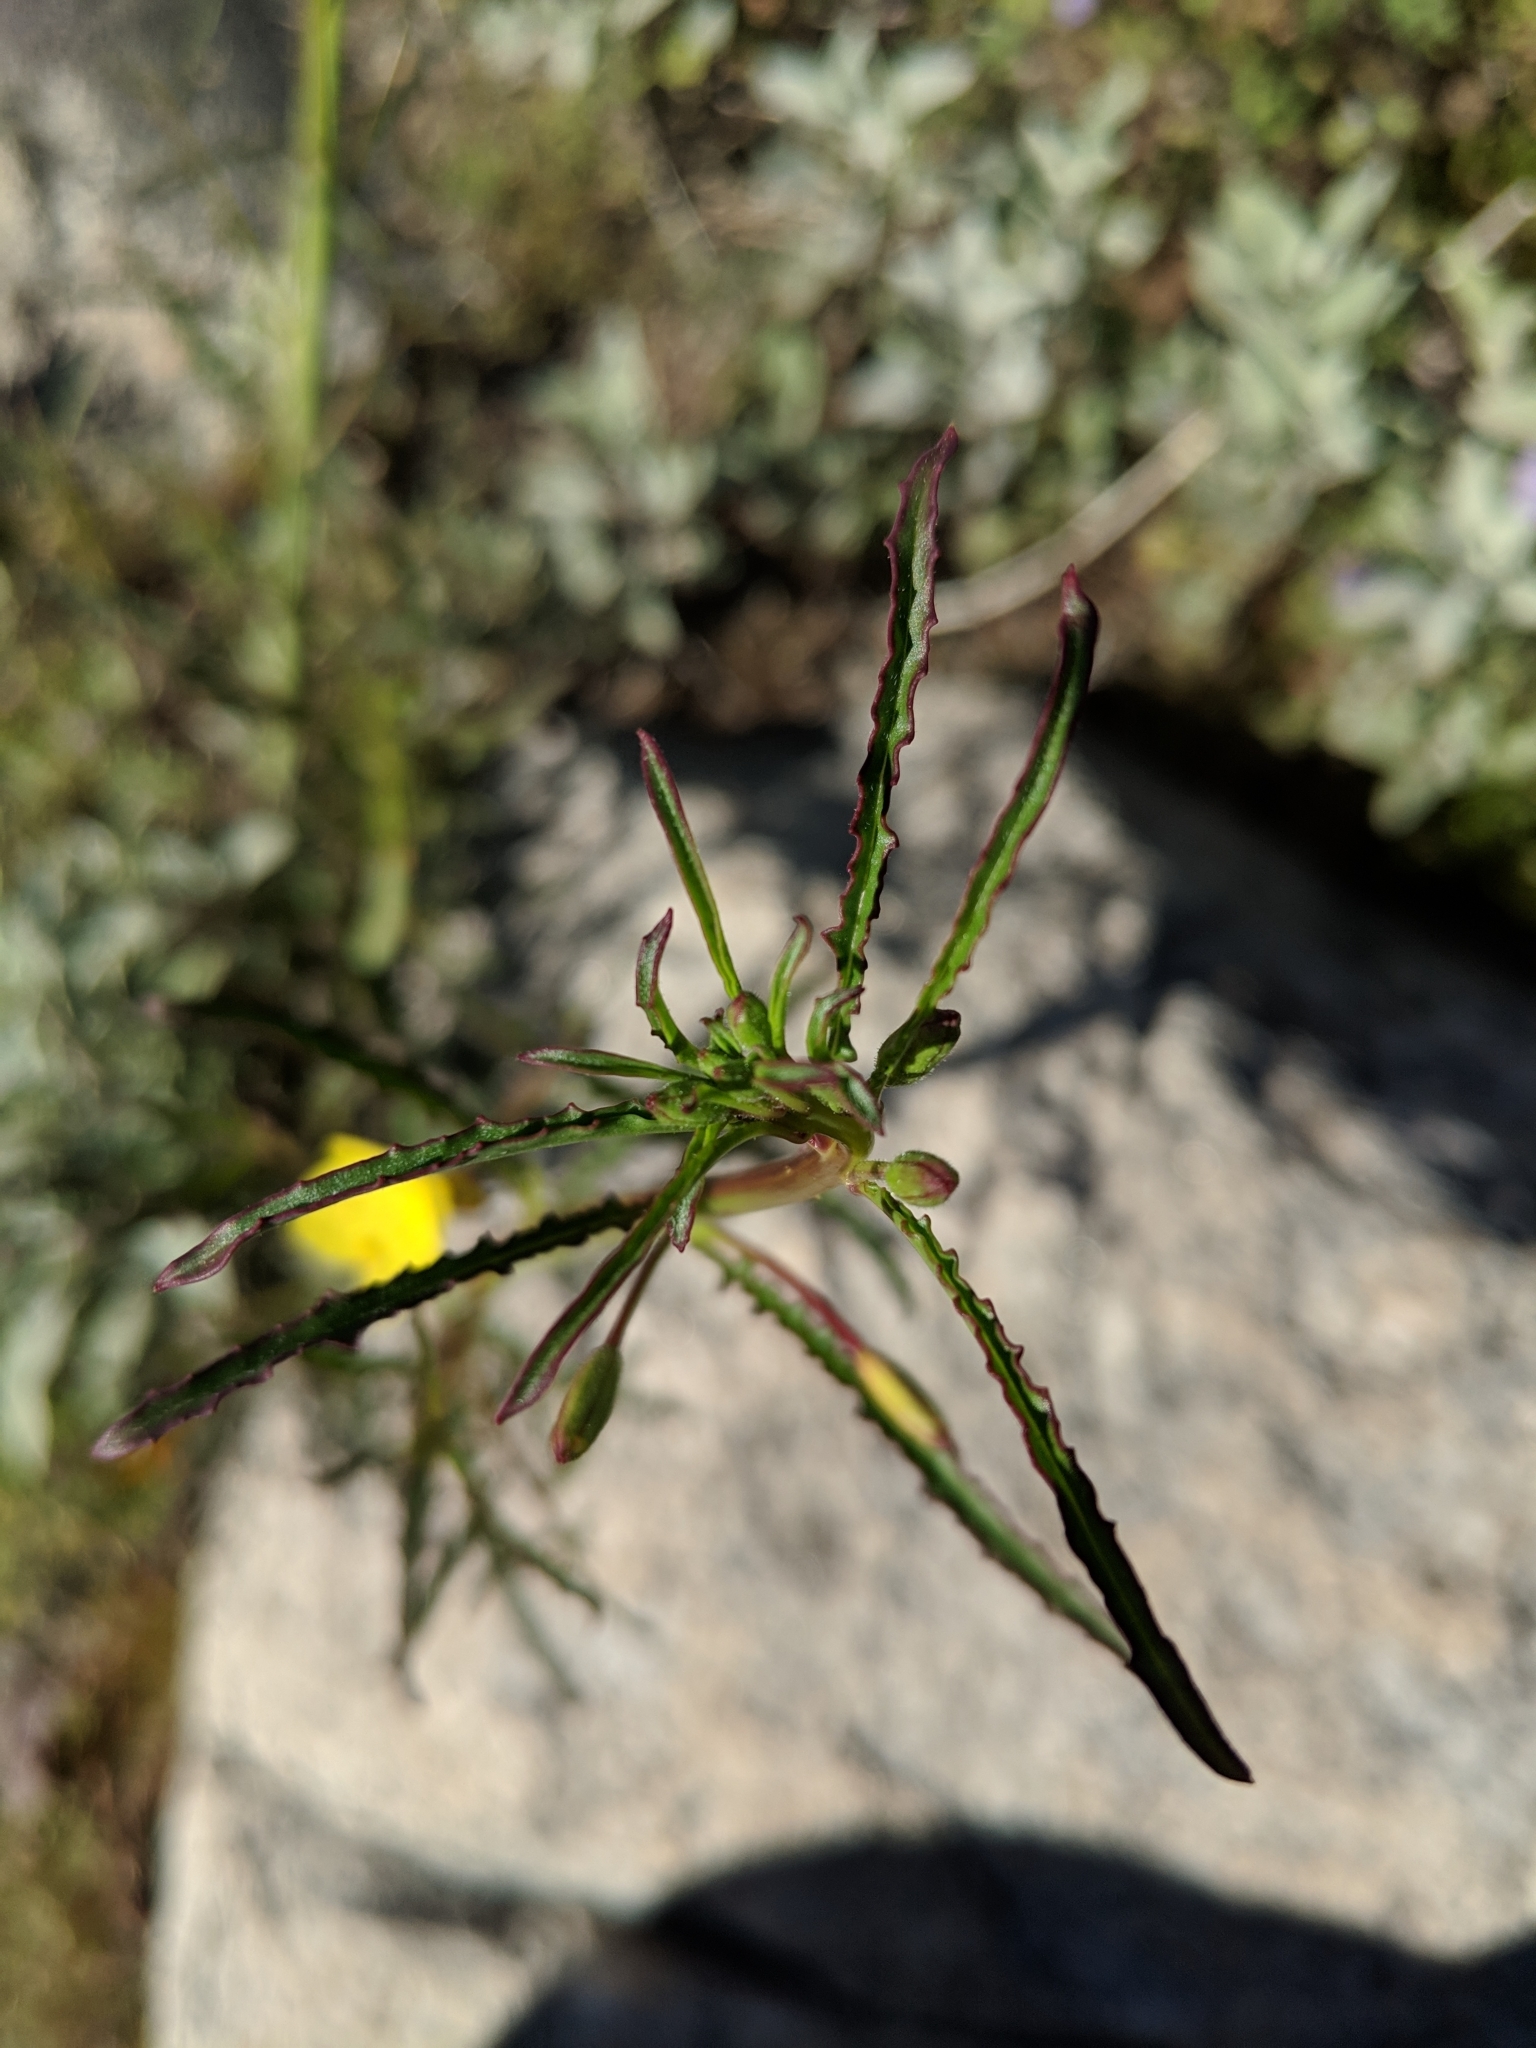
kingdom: Plantae
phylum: Tracheophyta
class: Magnoliopsida
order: Myrtales
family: Onagraceae
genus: Eulobus
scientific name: Eulobus californicus
